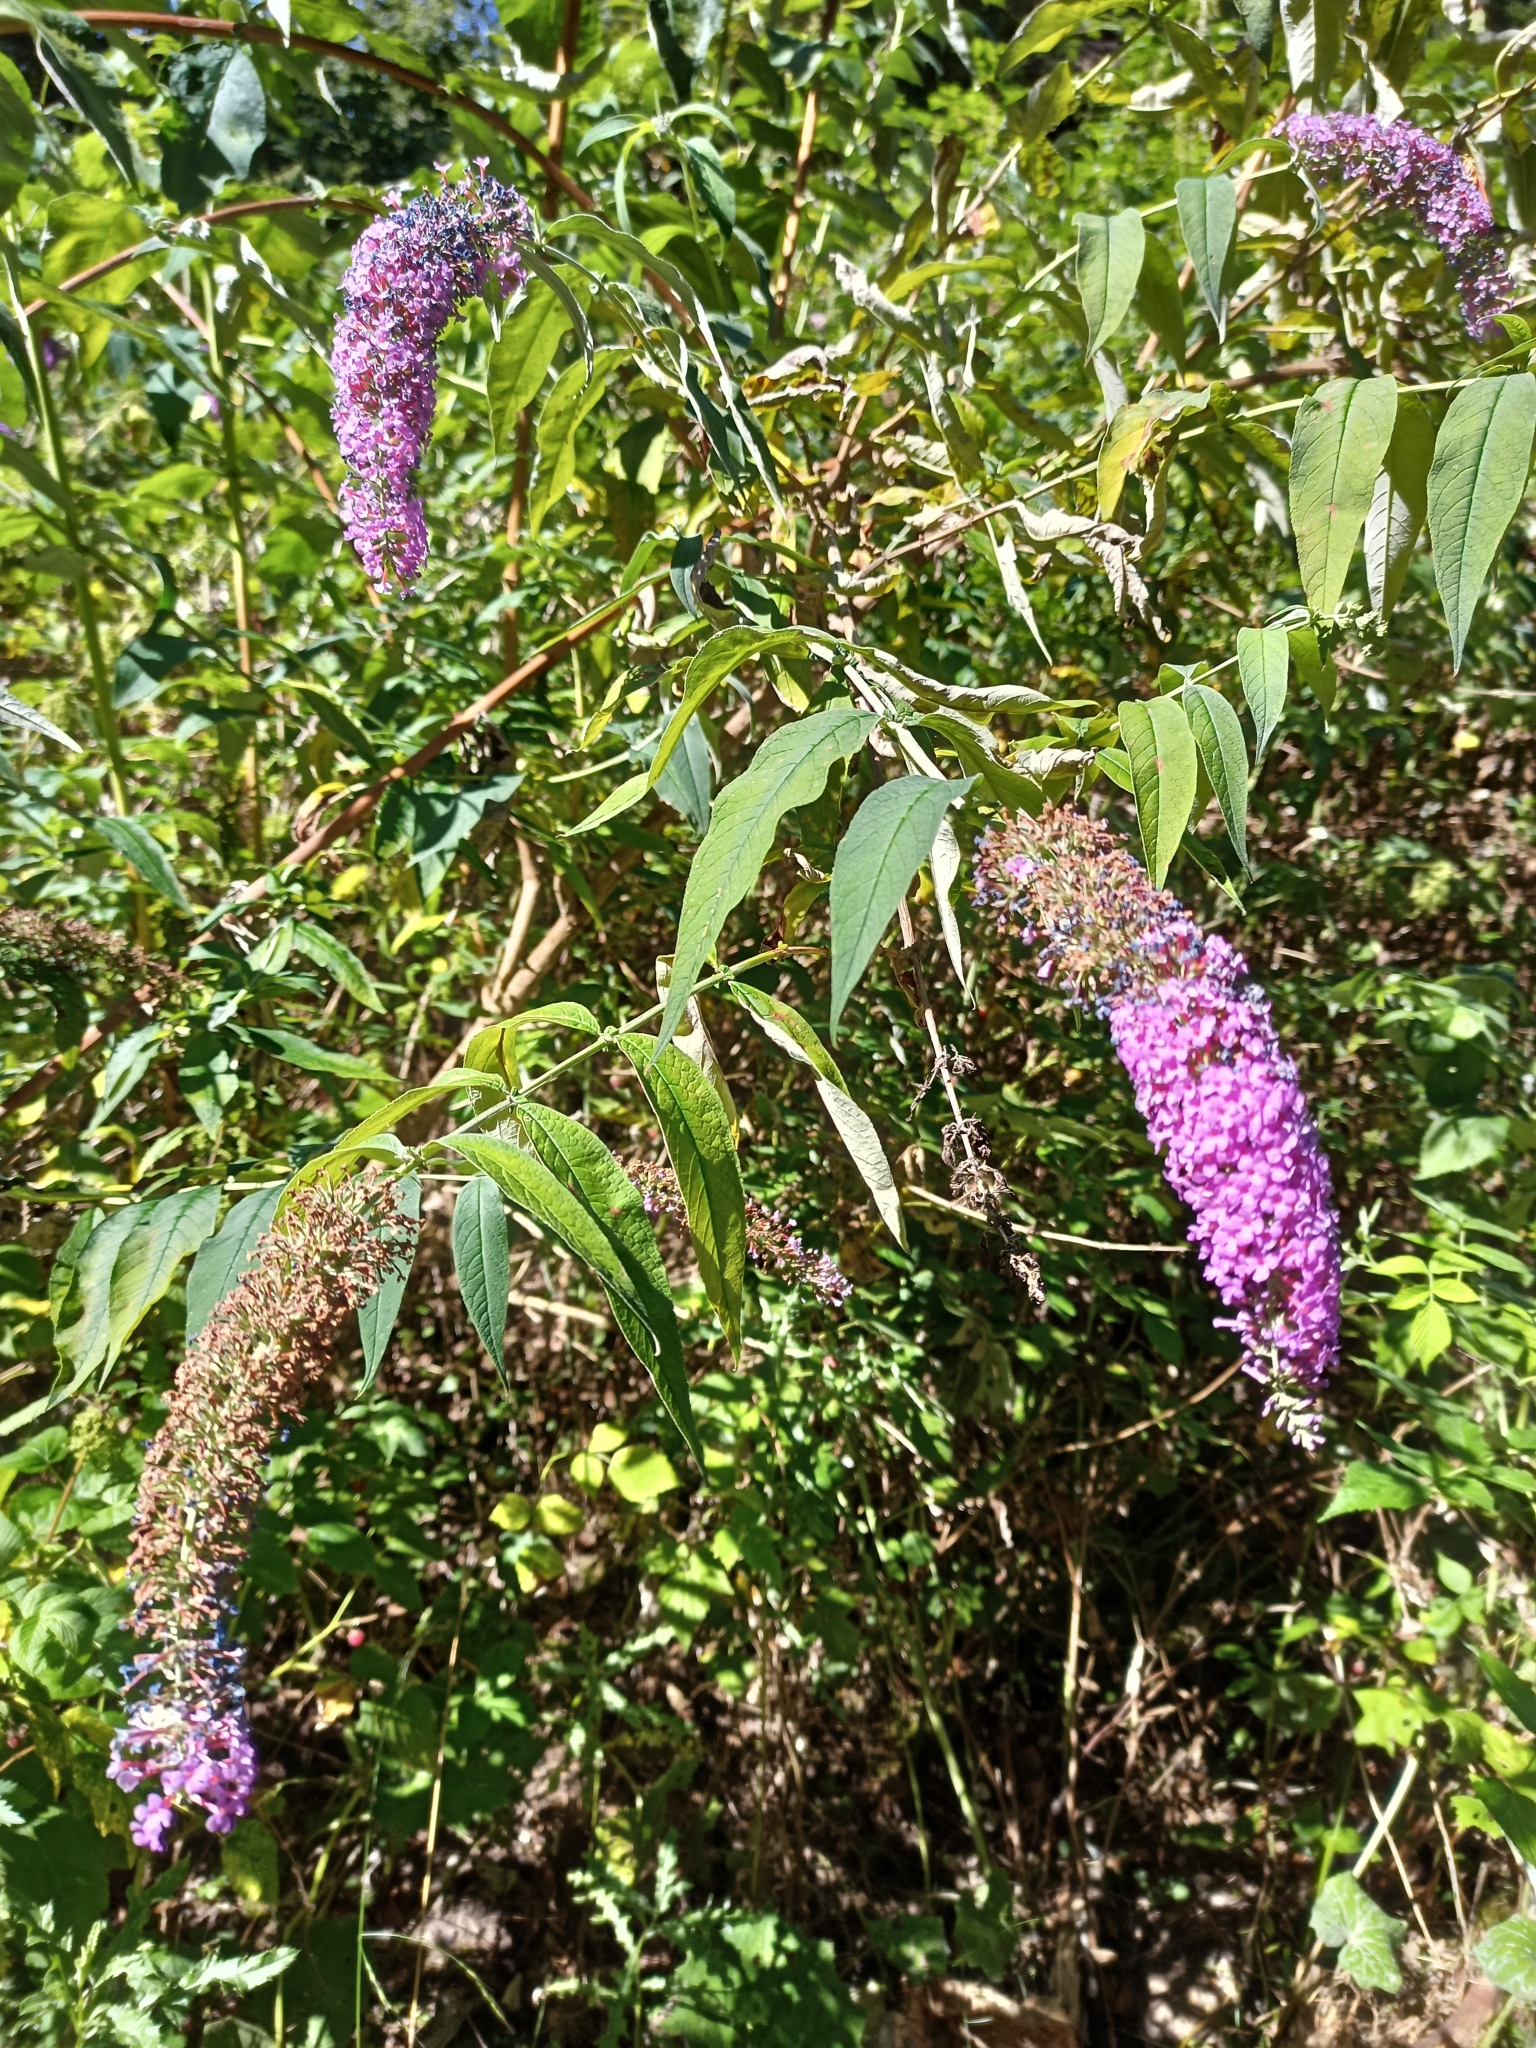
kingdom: Plantae
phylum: Tracheophyta
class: Magnoliopsida
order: Lamiales
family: Scrophulariaceae
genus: Buddleja
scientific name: Buddleja davidii
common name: Butterfly-bush
